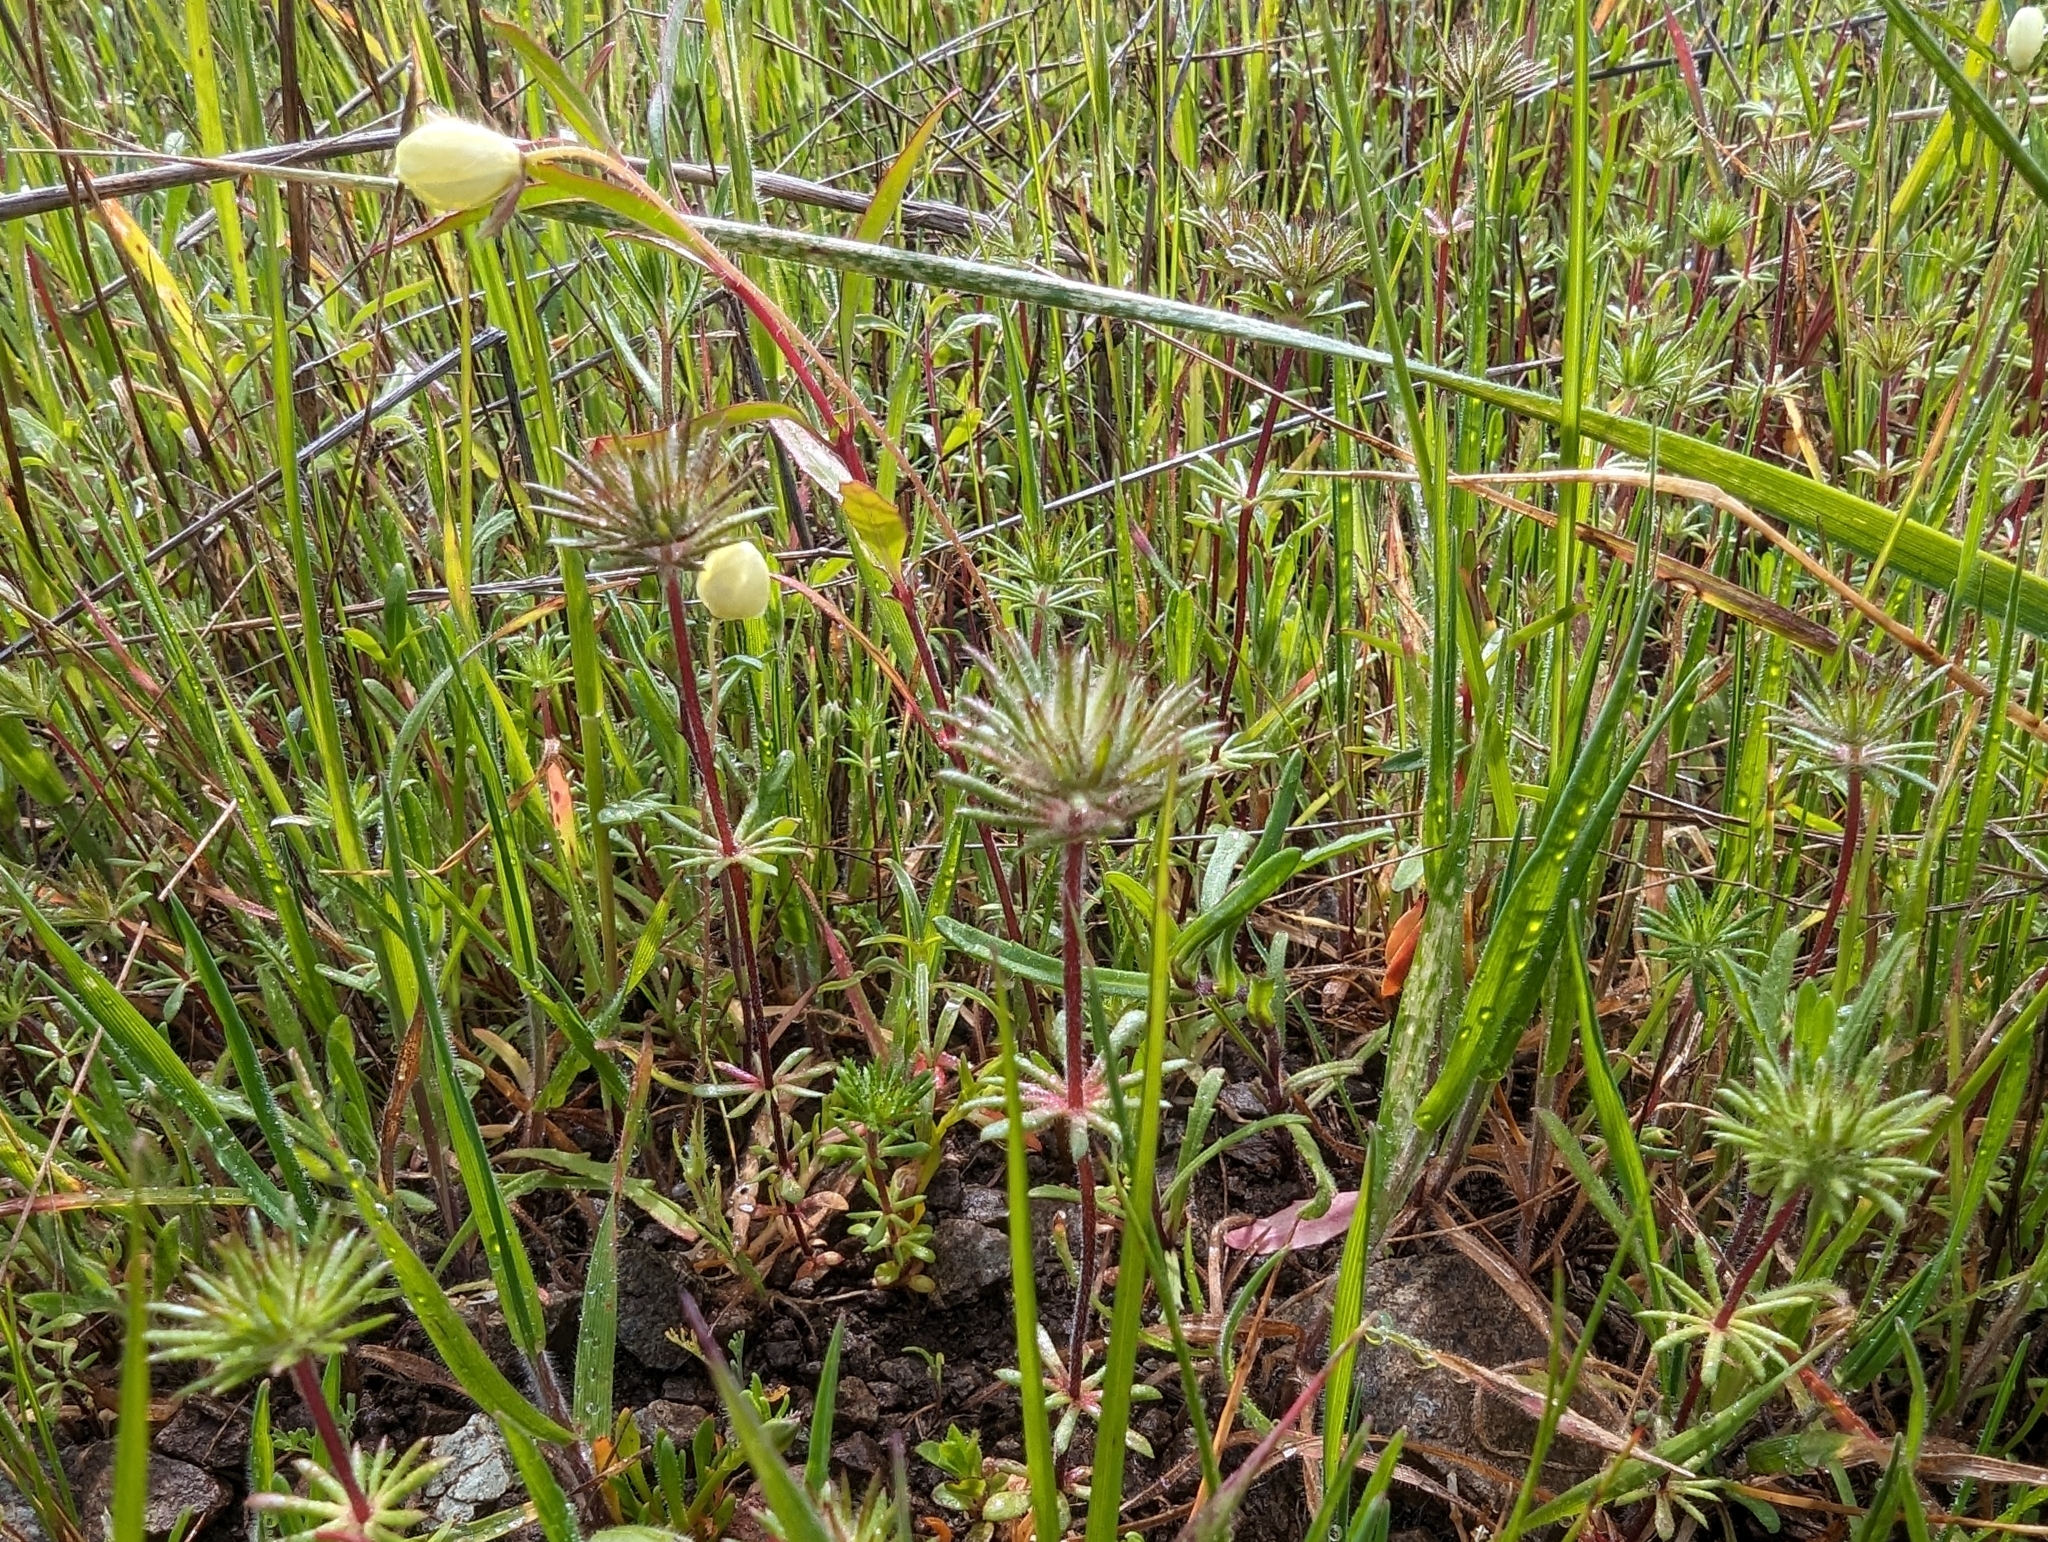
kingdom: Plantae
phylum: Tracheophyta
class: Magnoliopsida
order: Ranunculales
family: Papaveraceae
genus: Platystemon
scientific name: Platystemon californicus
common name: Cream-cups
